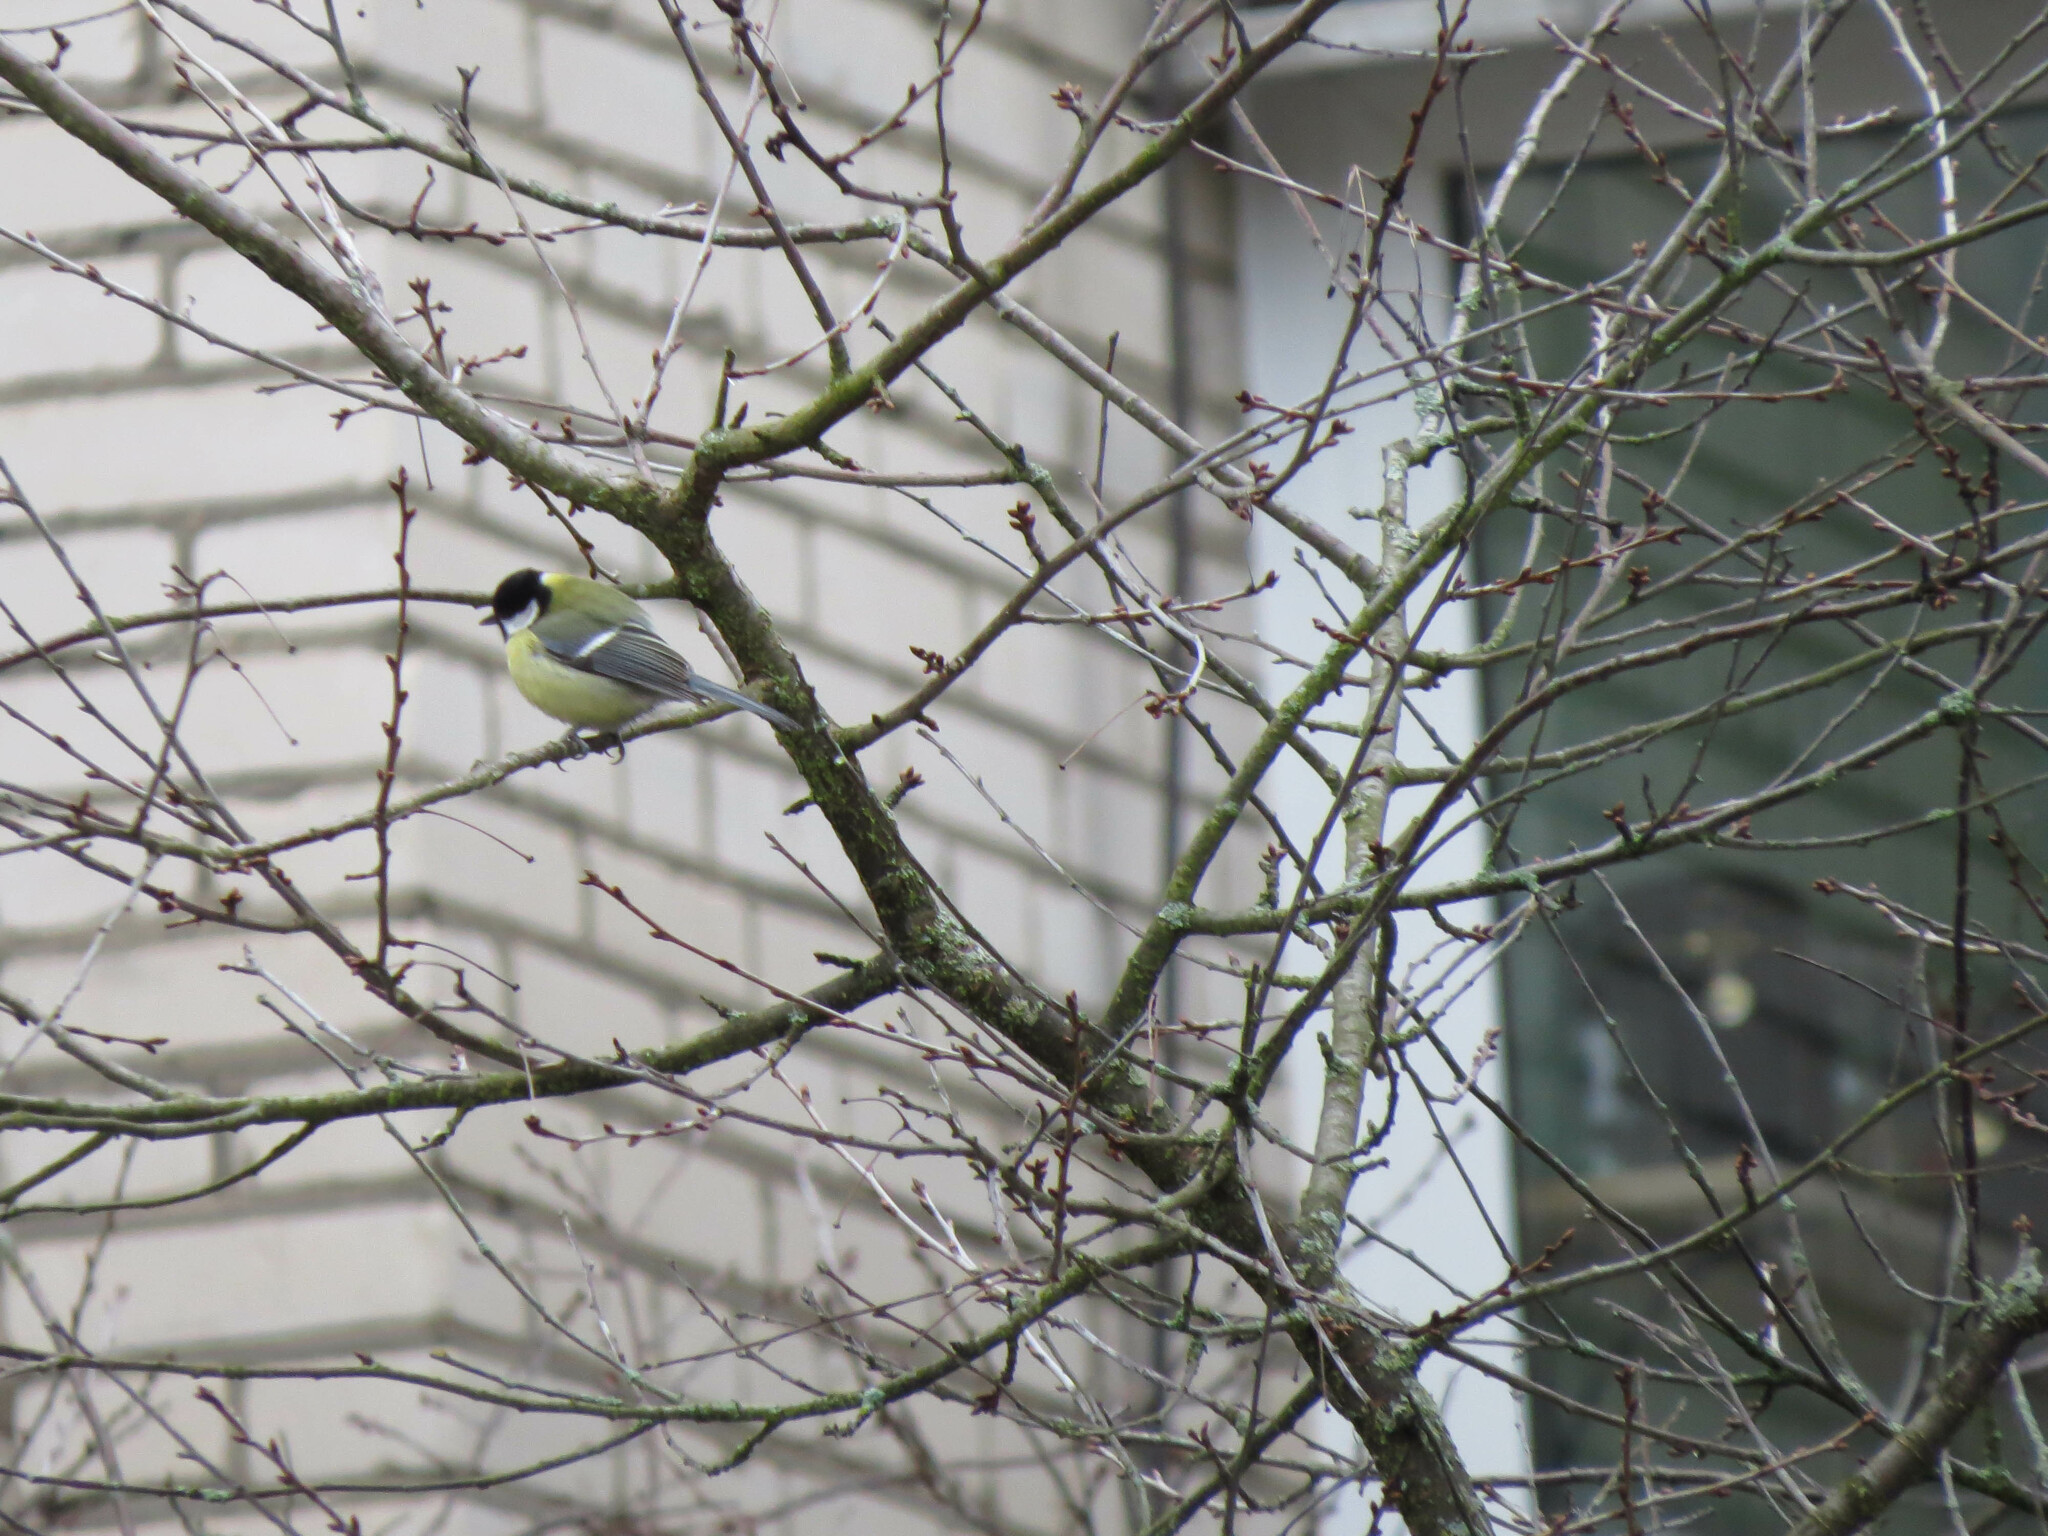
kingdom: Animalia
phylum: Chordata
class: Aves
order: Passeriformes
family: Paridae
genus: Parus
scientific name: Parus major
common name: Great tit
